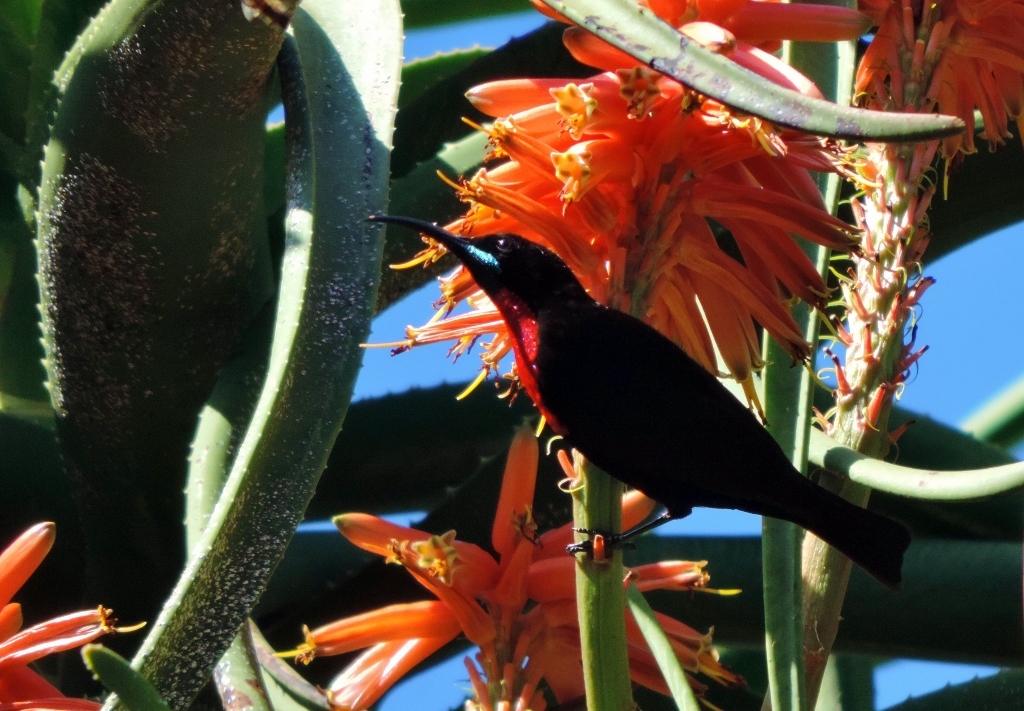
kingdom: Animalia
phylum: Chordata
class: Aves
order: Passeriformes
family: Nectariniidae
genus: Chalcomitra
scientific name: Chalcomitra senegalensis
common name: Scarlet-chested sunbird
